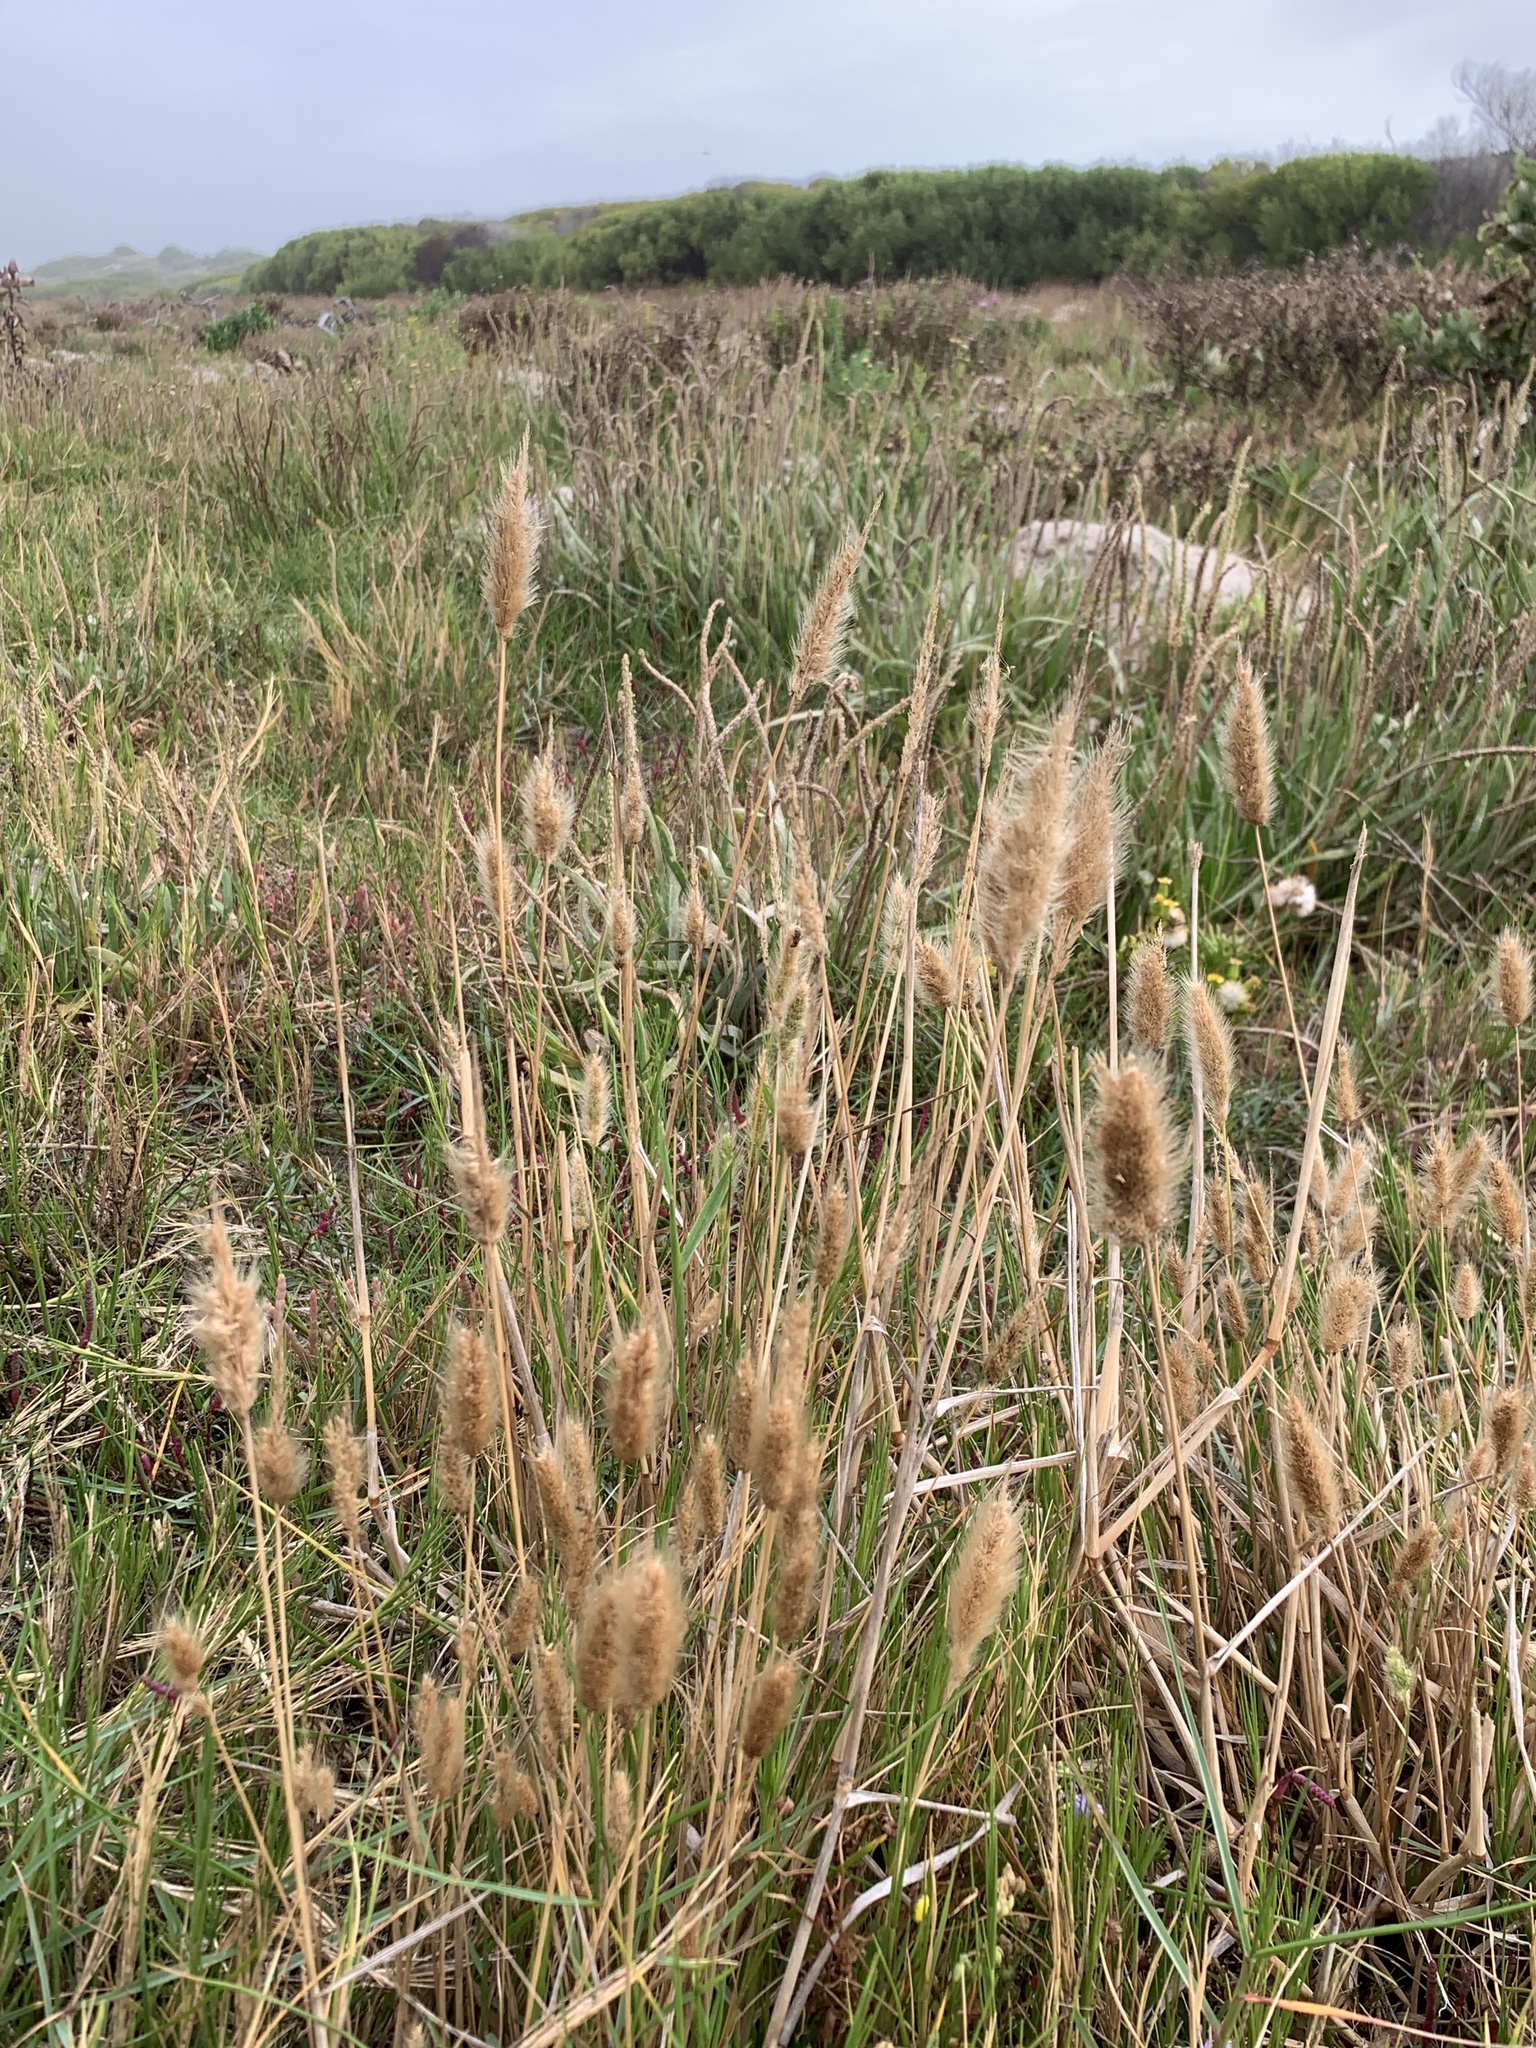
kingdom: Plantae
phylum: Tracheophyta
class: Liliopsida
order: Poales
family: Poaceae
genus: Polypogon
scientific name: Polypogon monspeliensis
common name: Annual rabbitsfoot grass
